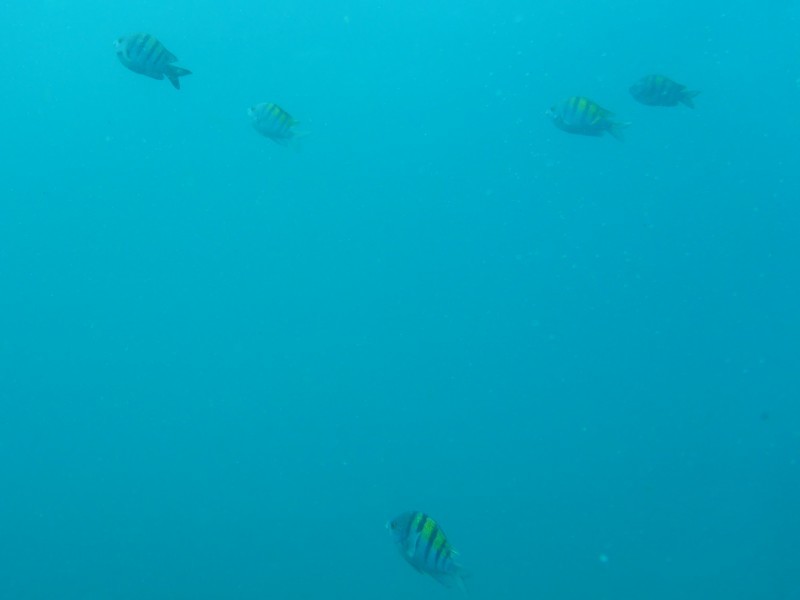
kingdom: Animalia
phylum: Chordata
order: Perciformes
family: Pomacentridae
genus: Abudefduf
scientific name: Abudefduf troschelii
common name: Panamic sergeant major
